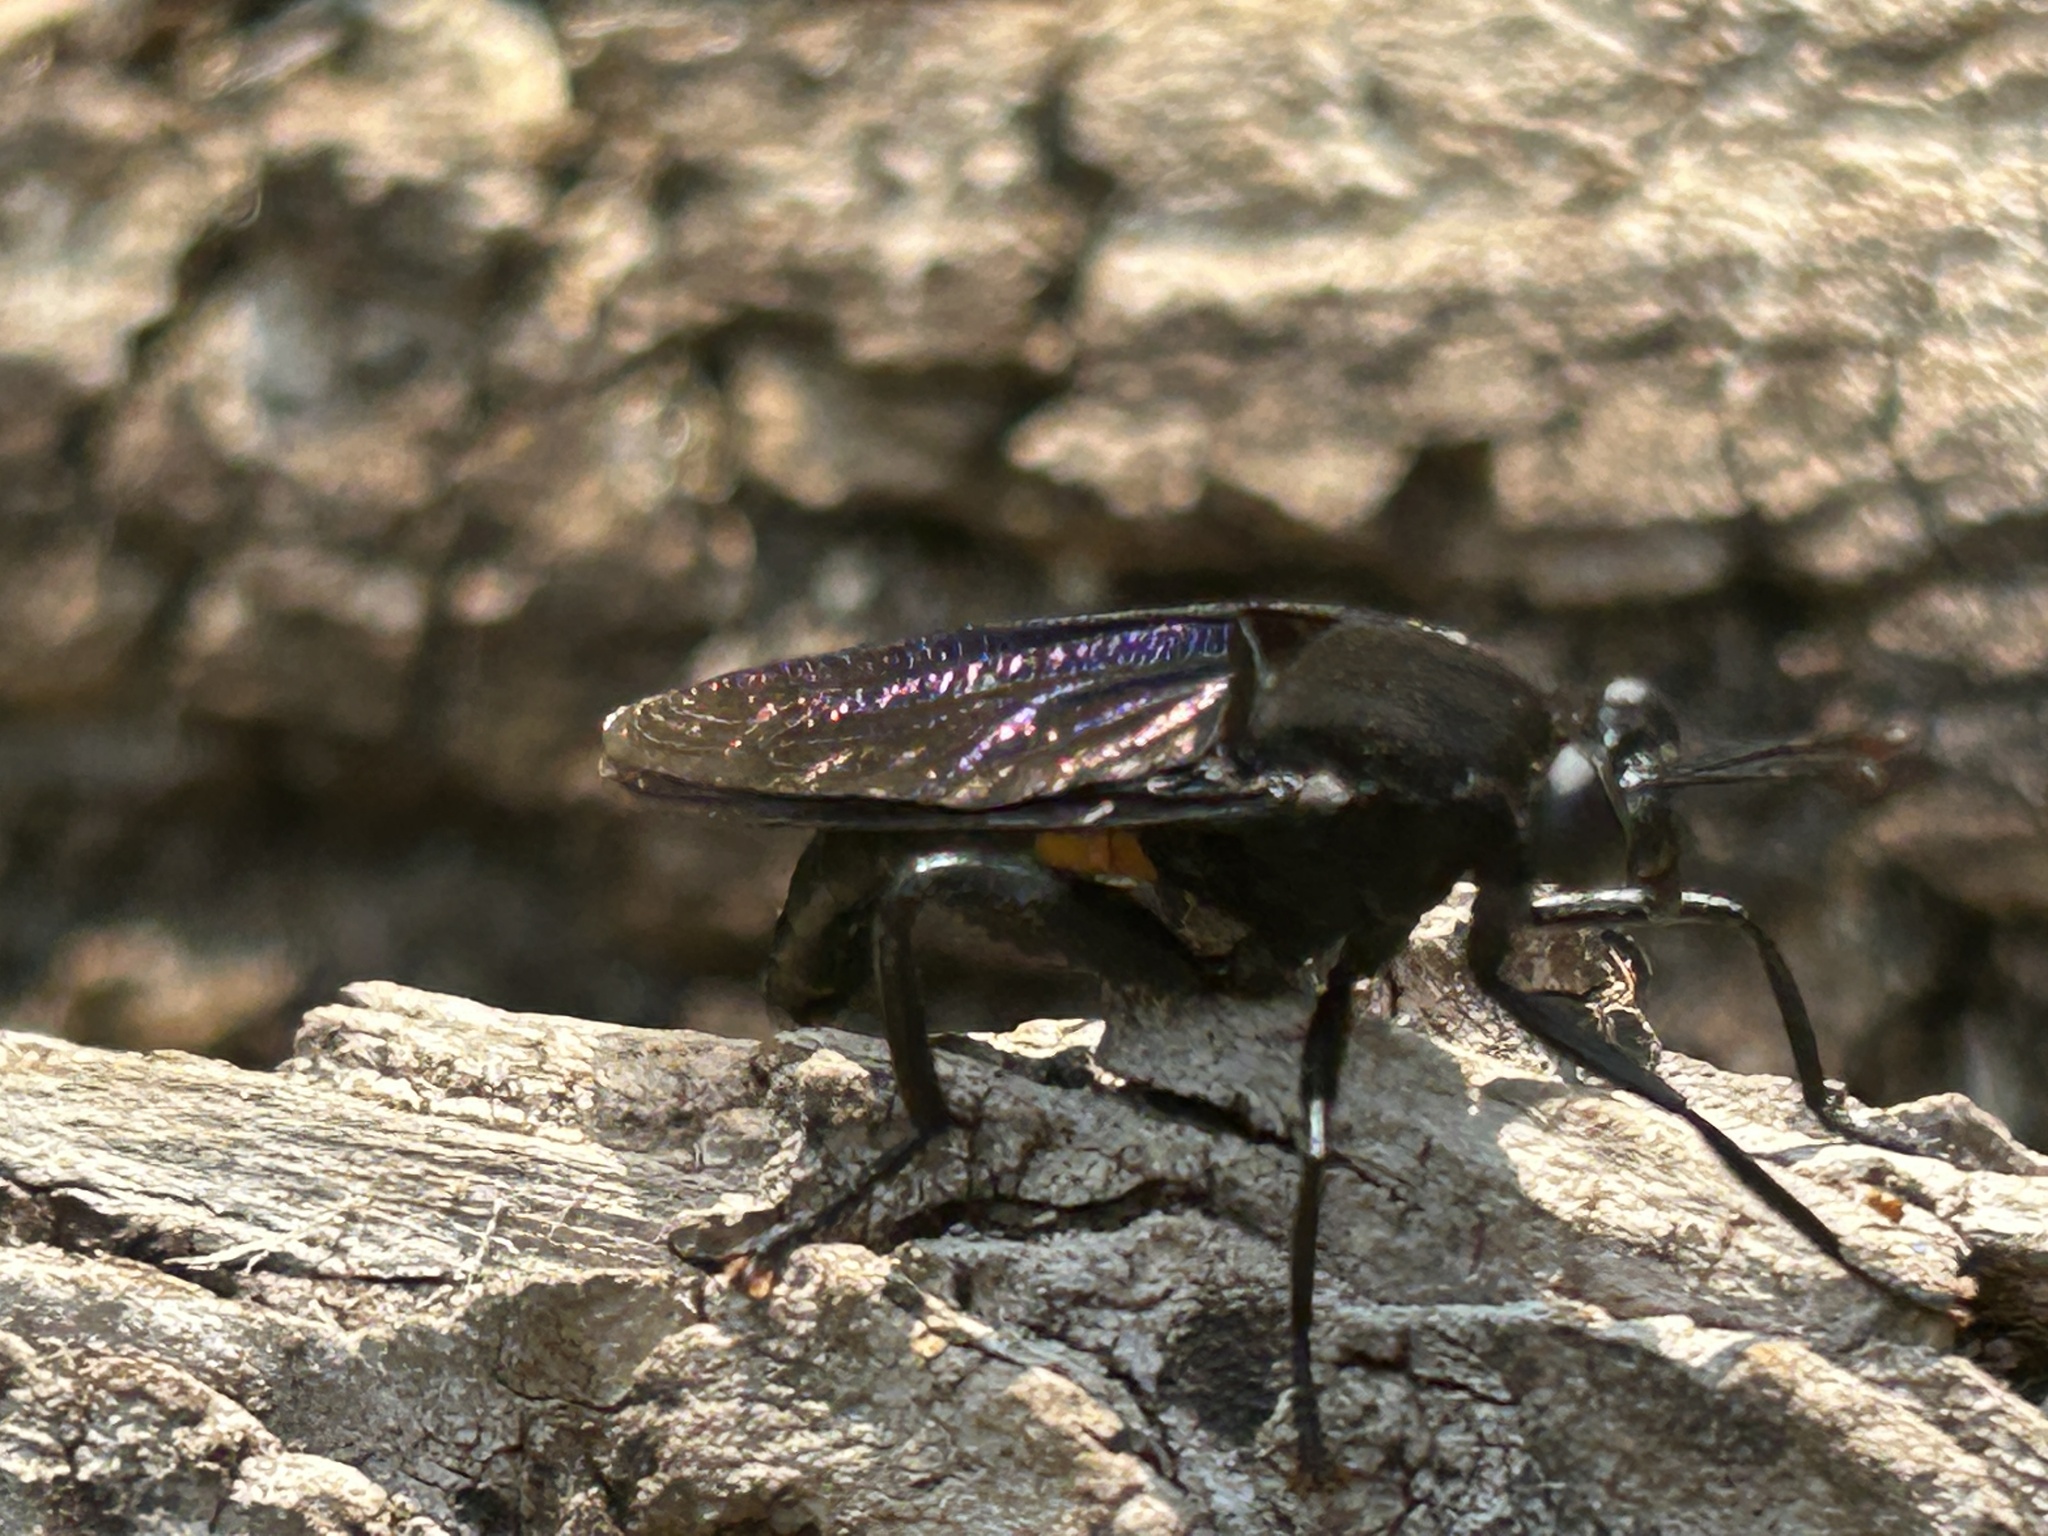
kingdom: Animalia
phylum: Arthropoda
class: Insecta
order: Diptera
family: Mydidae
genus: Mydas
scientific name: Mydas clavatus
